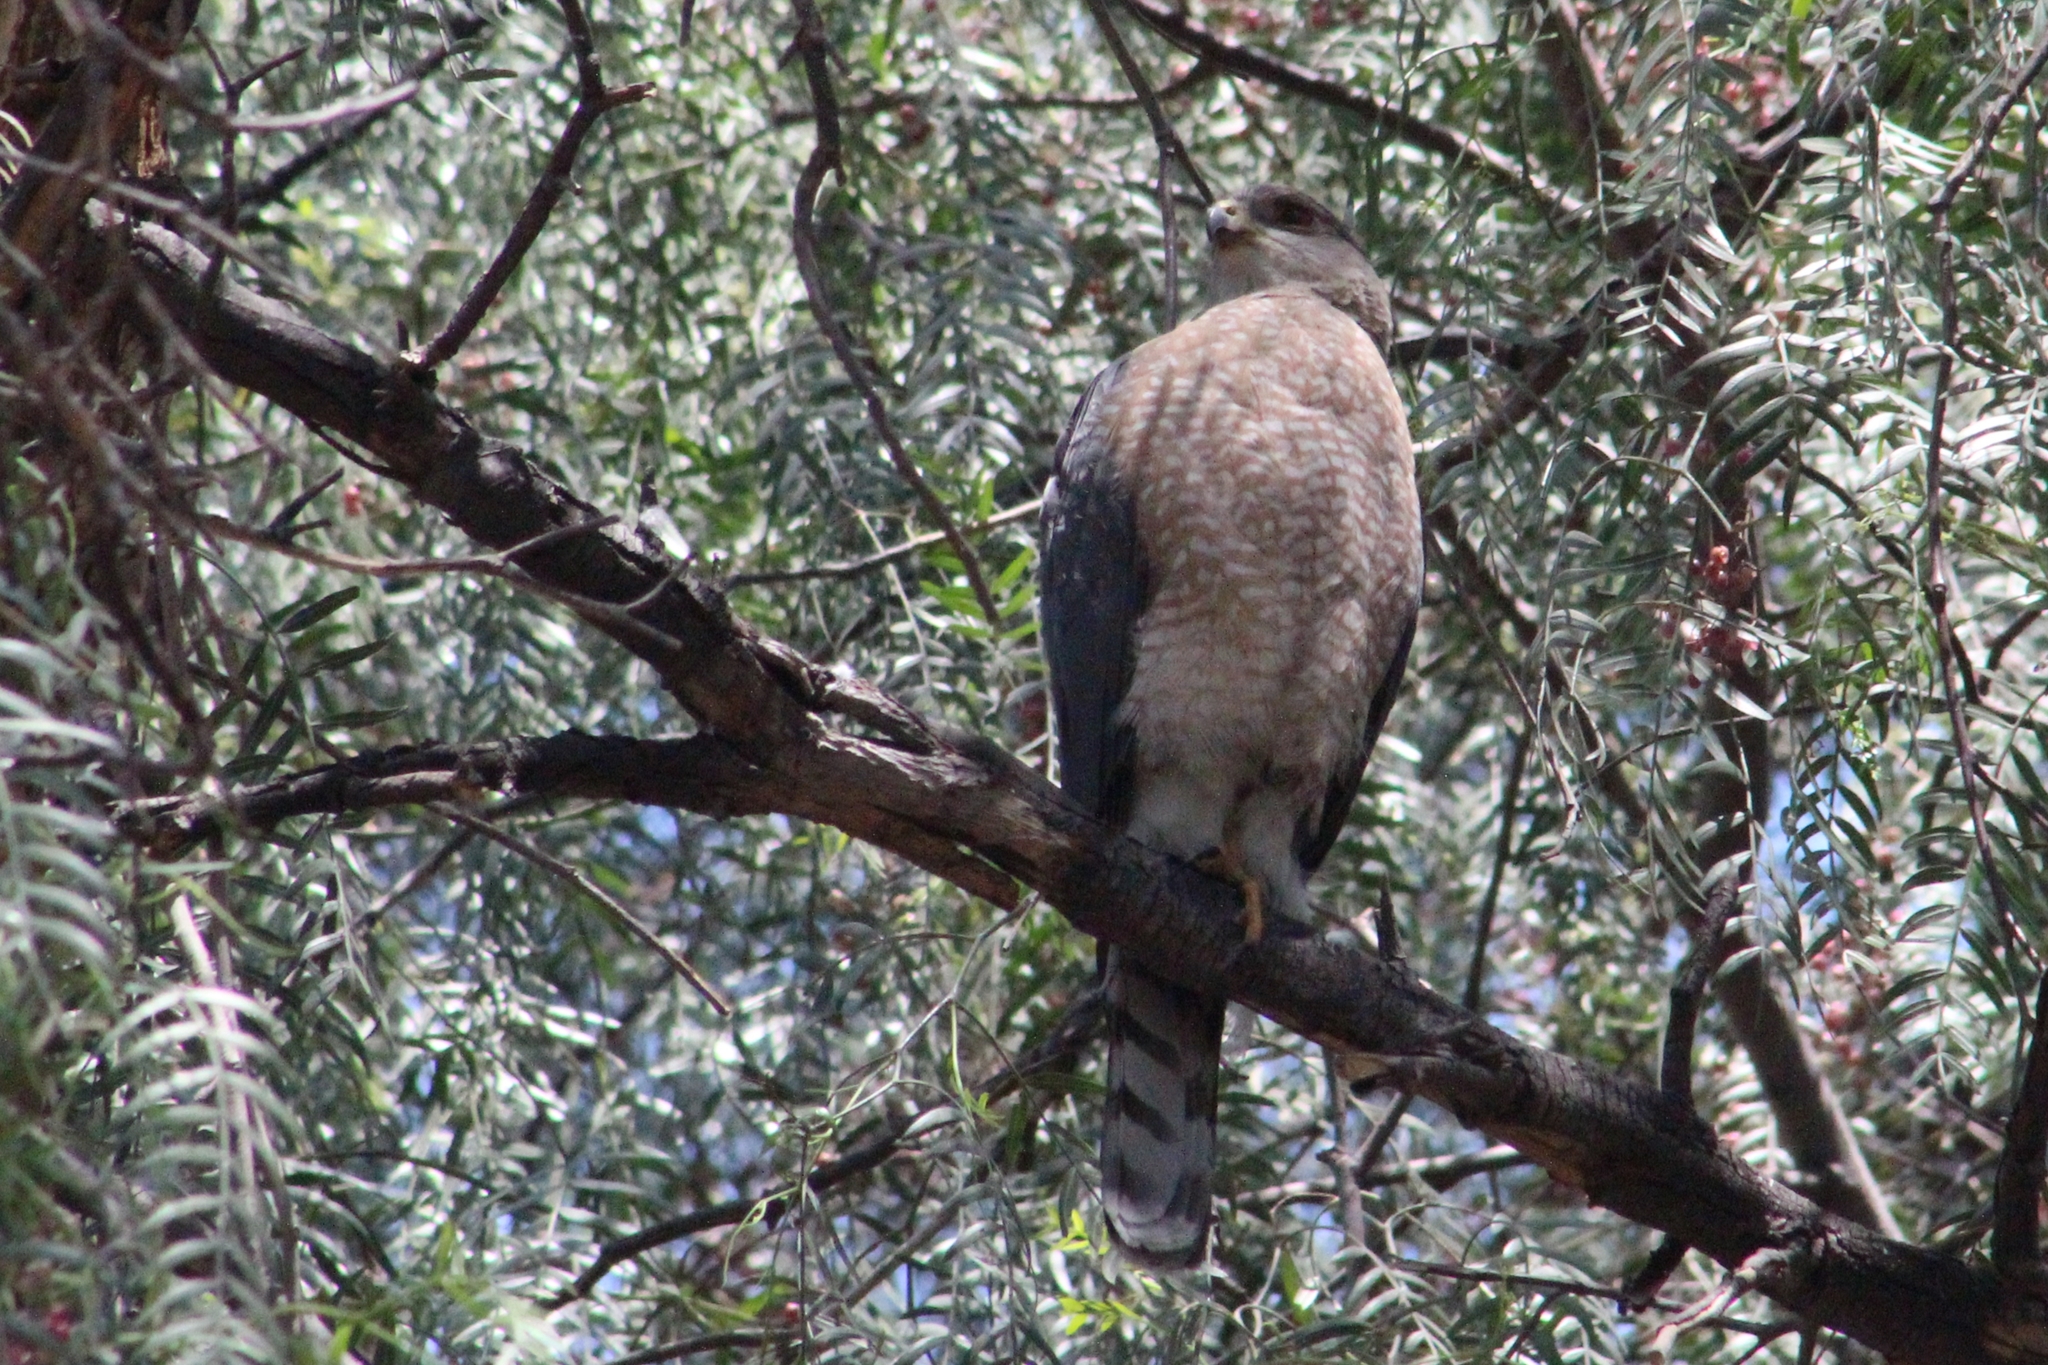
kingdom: Animalia
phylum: Chordata
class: Aves
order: Accipitriformes
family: Accipitridae
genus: Accipiter
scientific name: Accipiter cooperii
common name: Cooper's hawk
